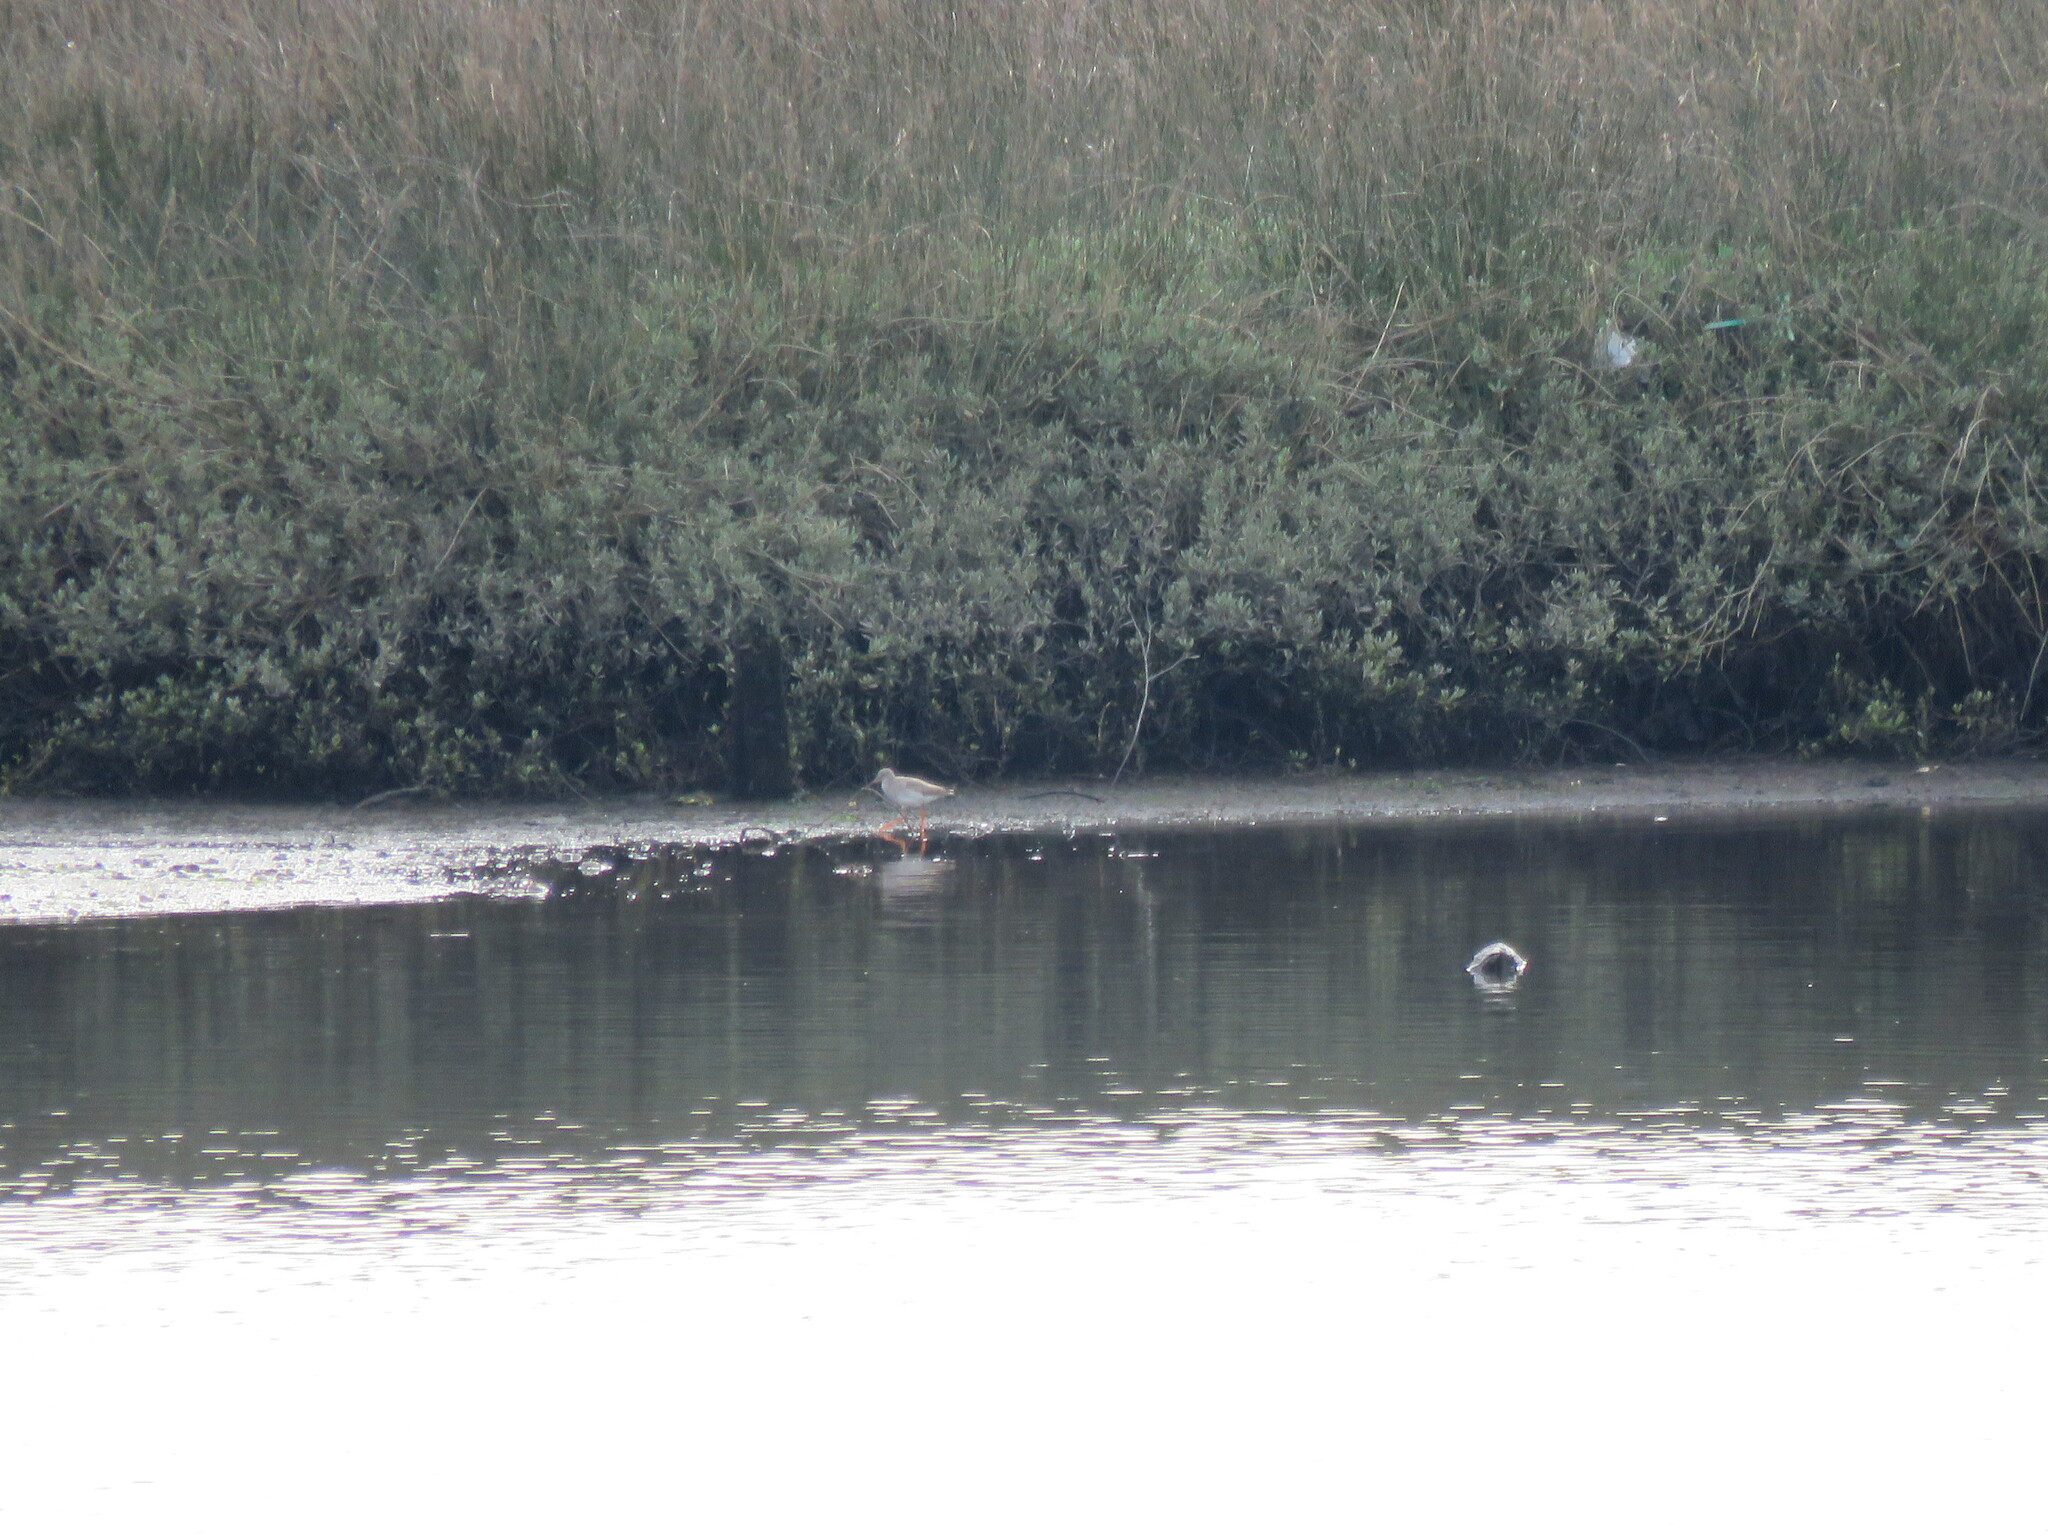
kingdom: Animalia
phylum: Chordata
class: Aves
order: Charadriiformes
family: Scolopacidae
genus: Tringa
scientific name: Tringa totanus
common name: Common redshank
